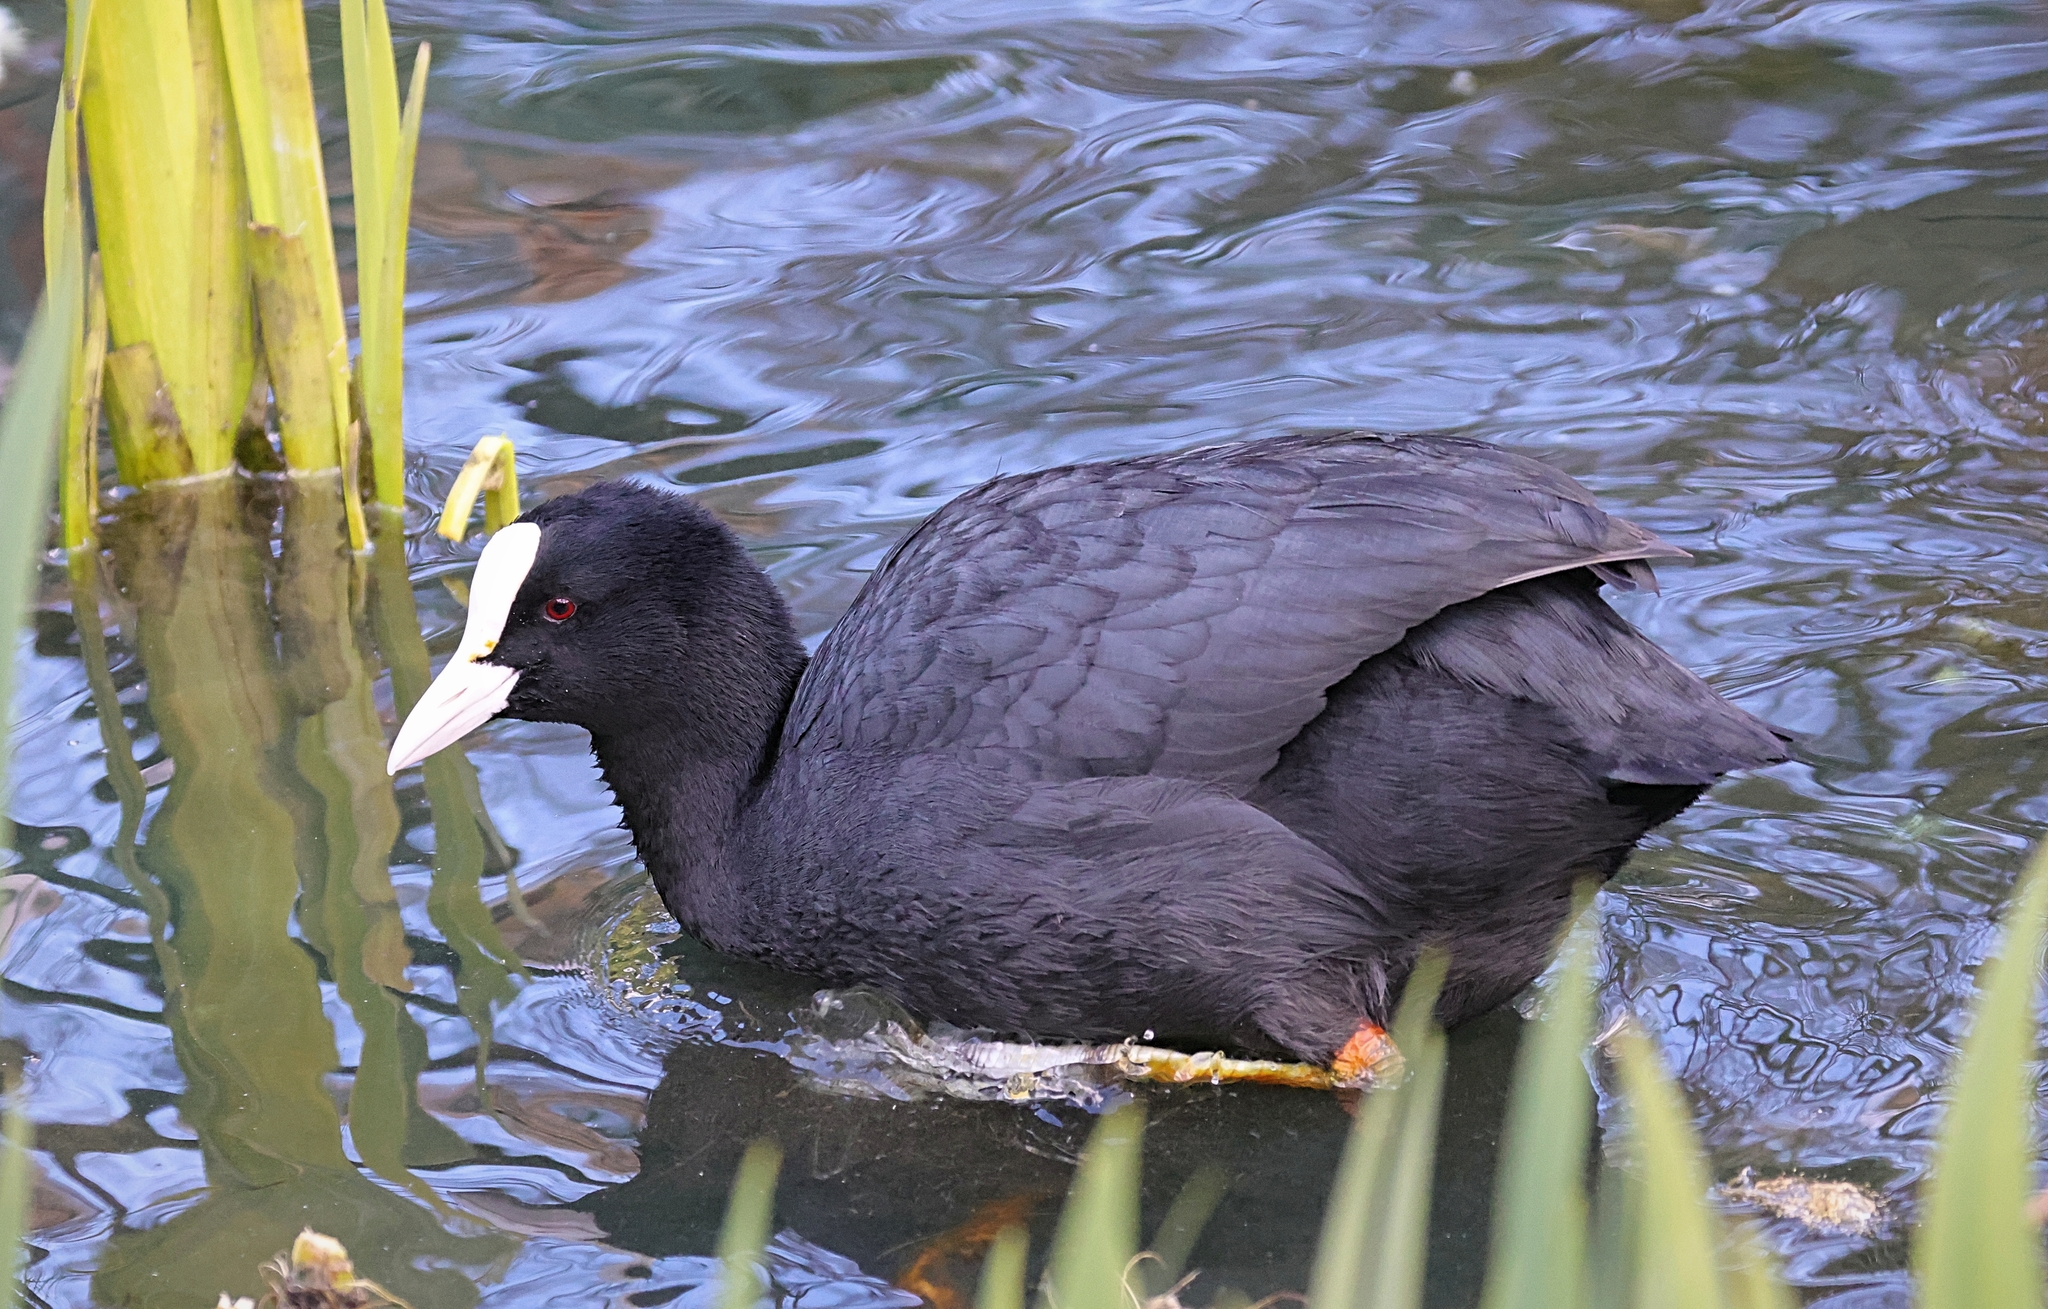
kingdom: Animalia
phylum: Chordata
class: Aves
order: Gruiformes
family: Rallidae
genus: Fulica
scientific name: Fulica atra
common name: Eurasian coot
